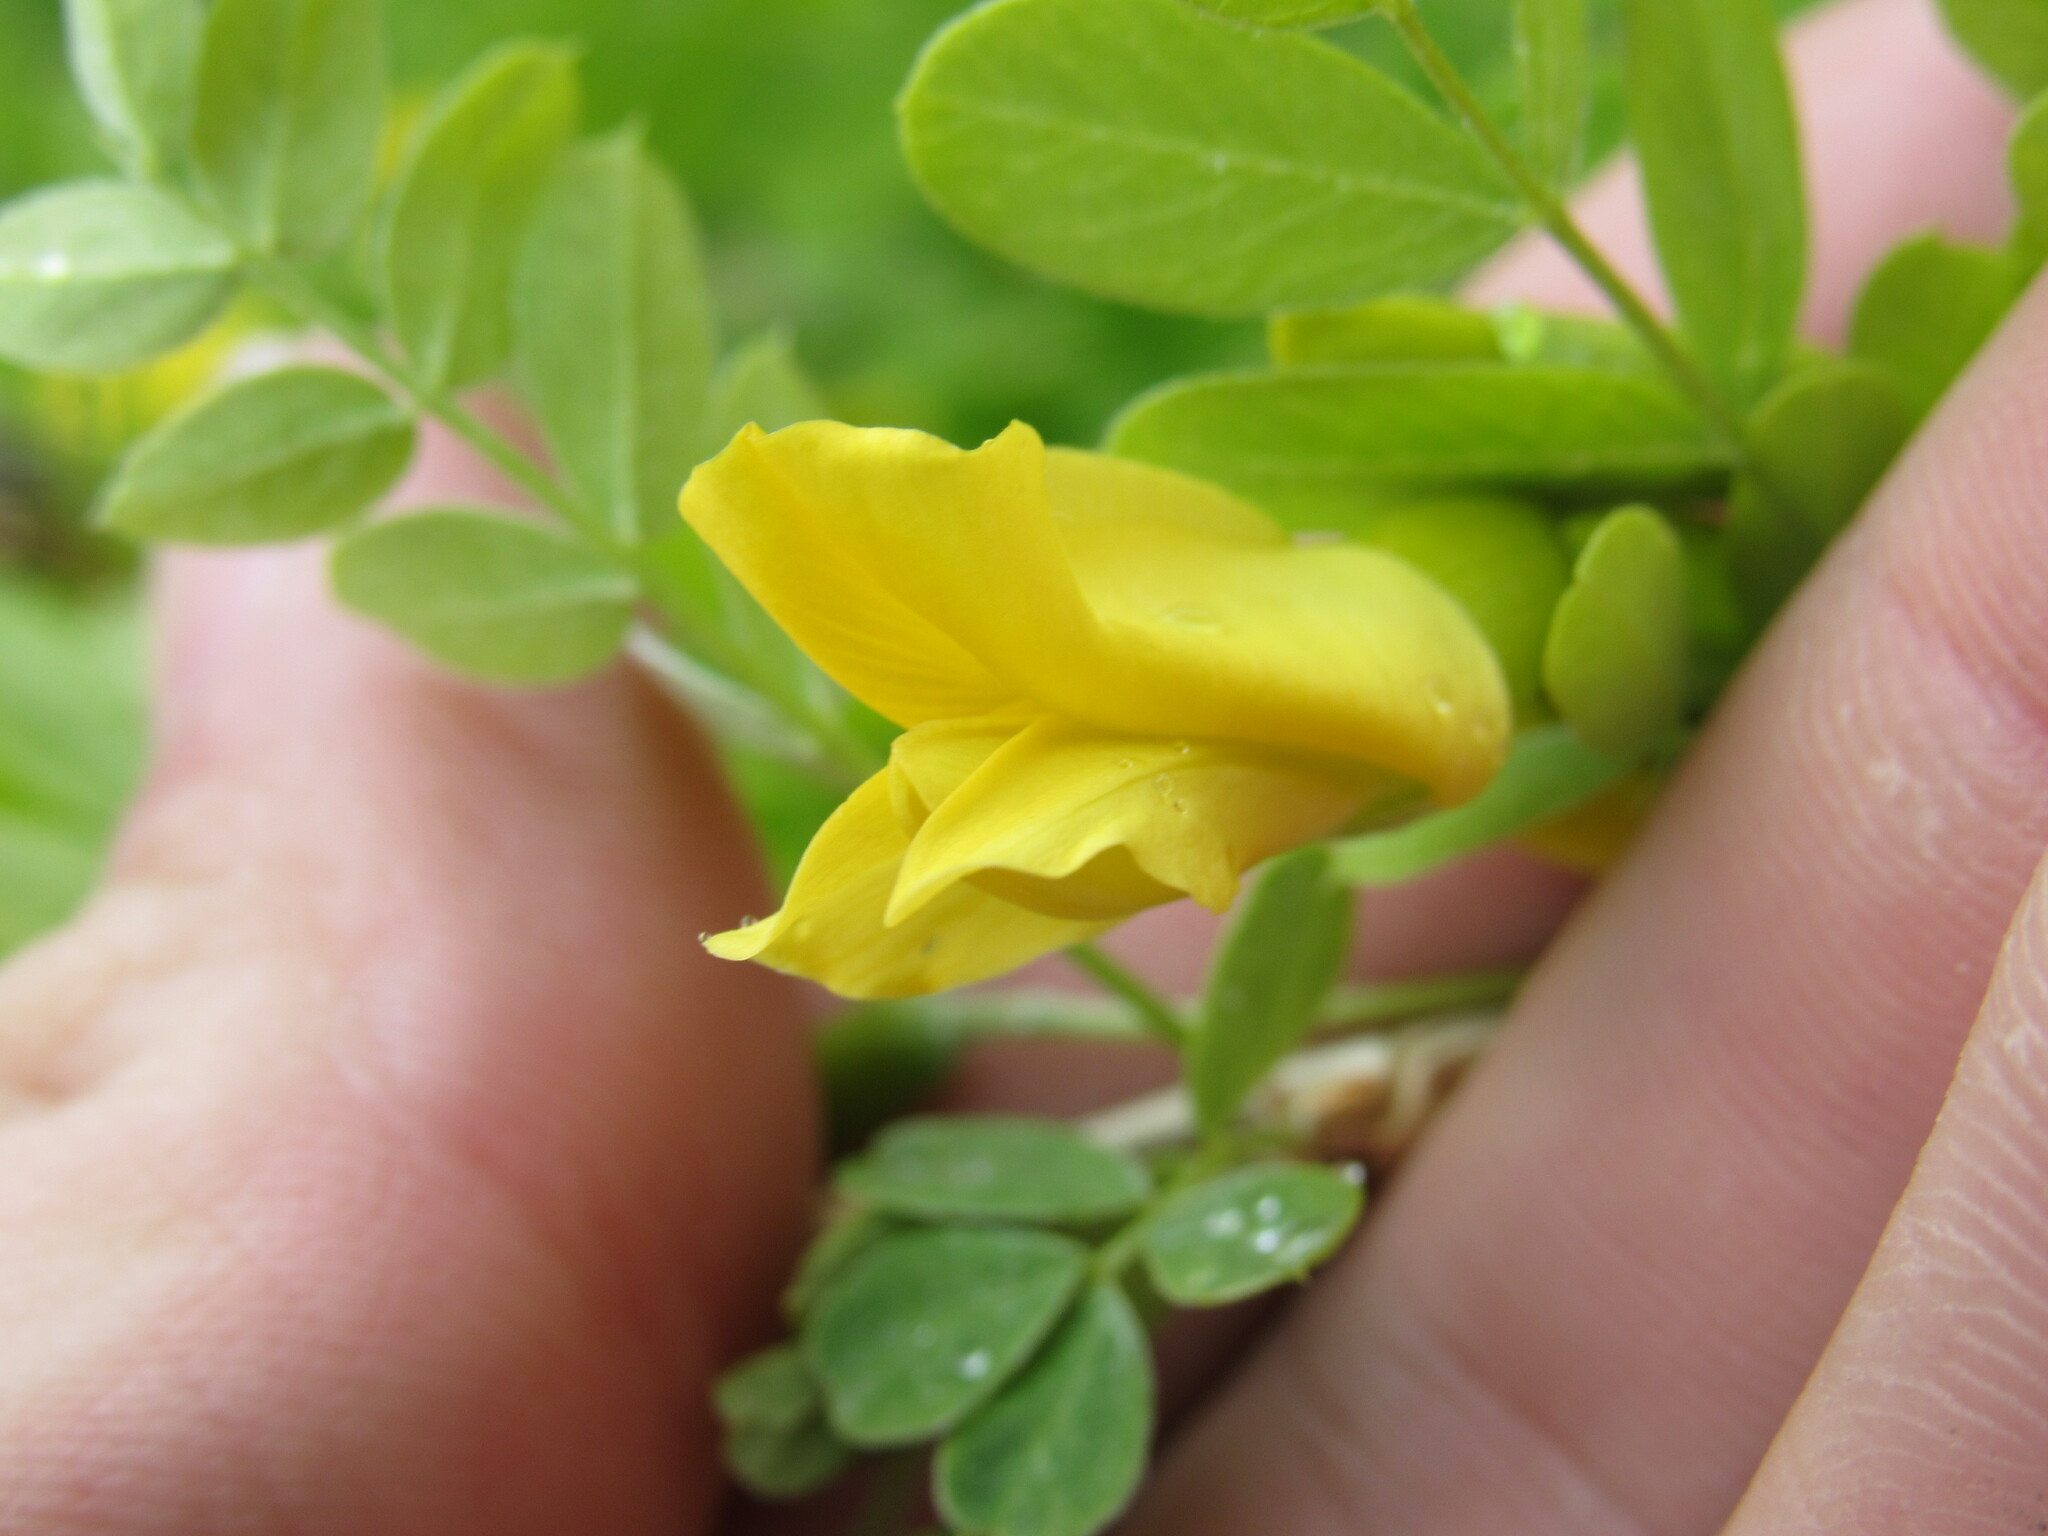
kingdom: Plantae
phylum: Tracheophyta
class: Magnoliopsida
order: Fabales
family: Fabaceae
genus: Caragana
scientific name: Caragana arborescens
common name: Siberian peashrub
